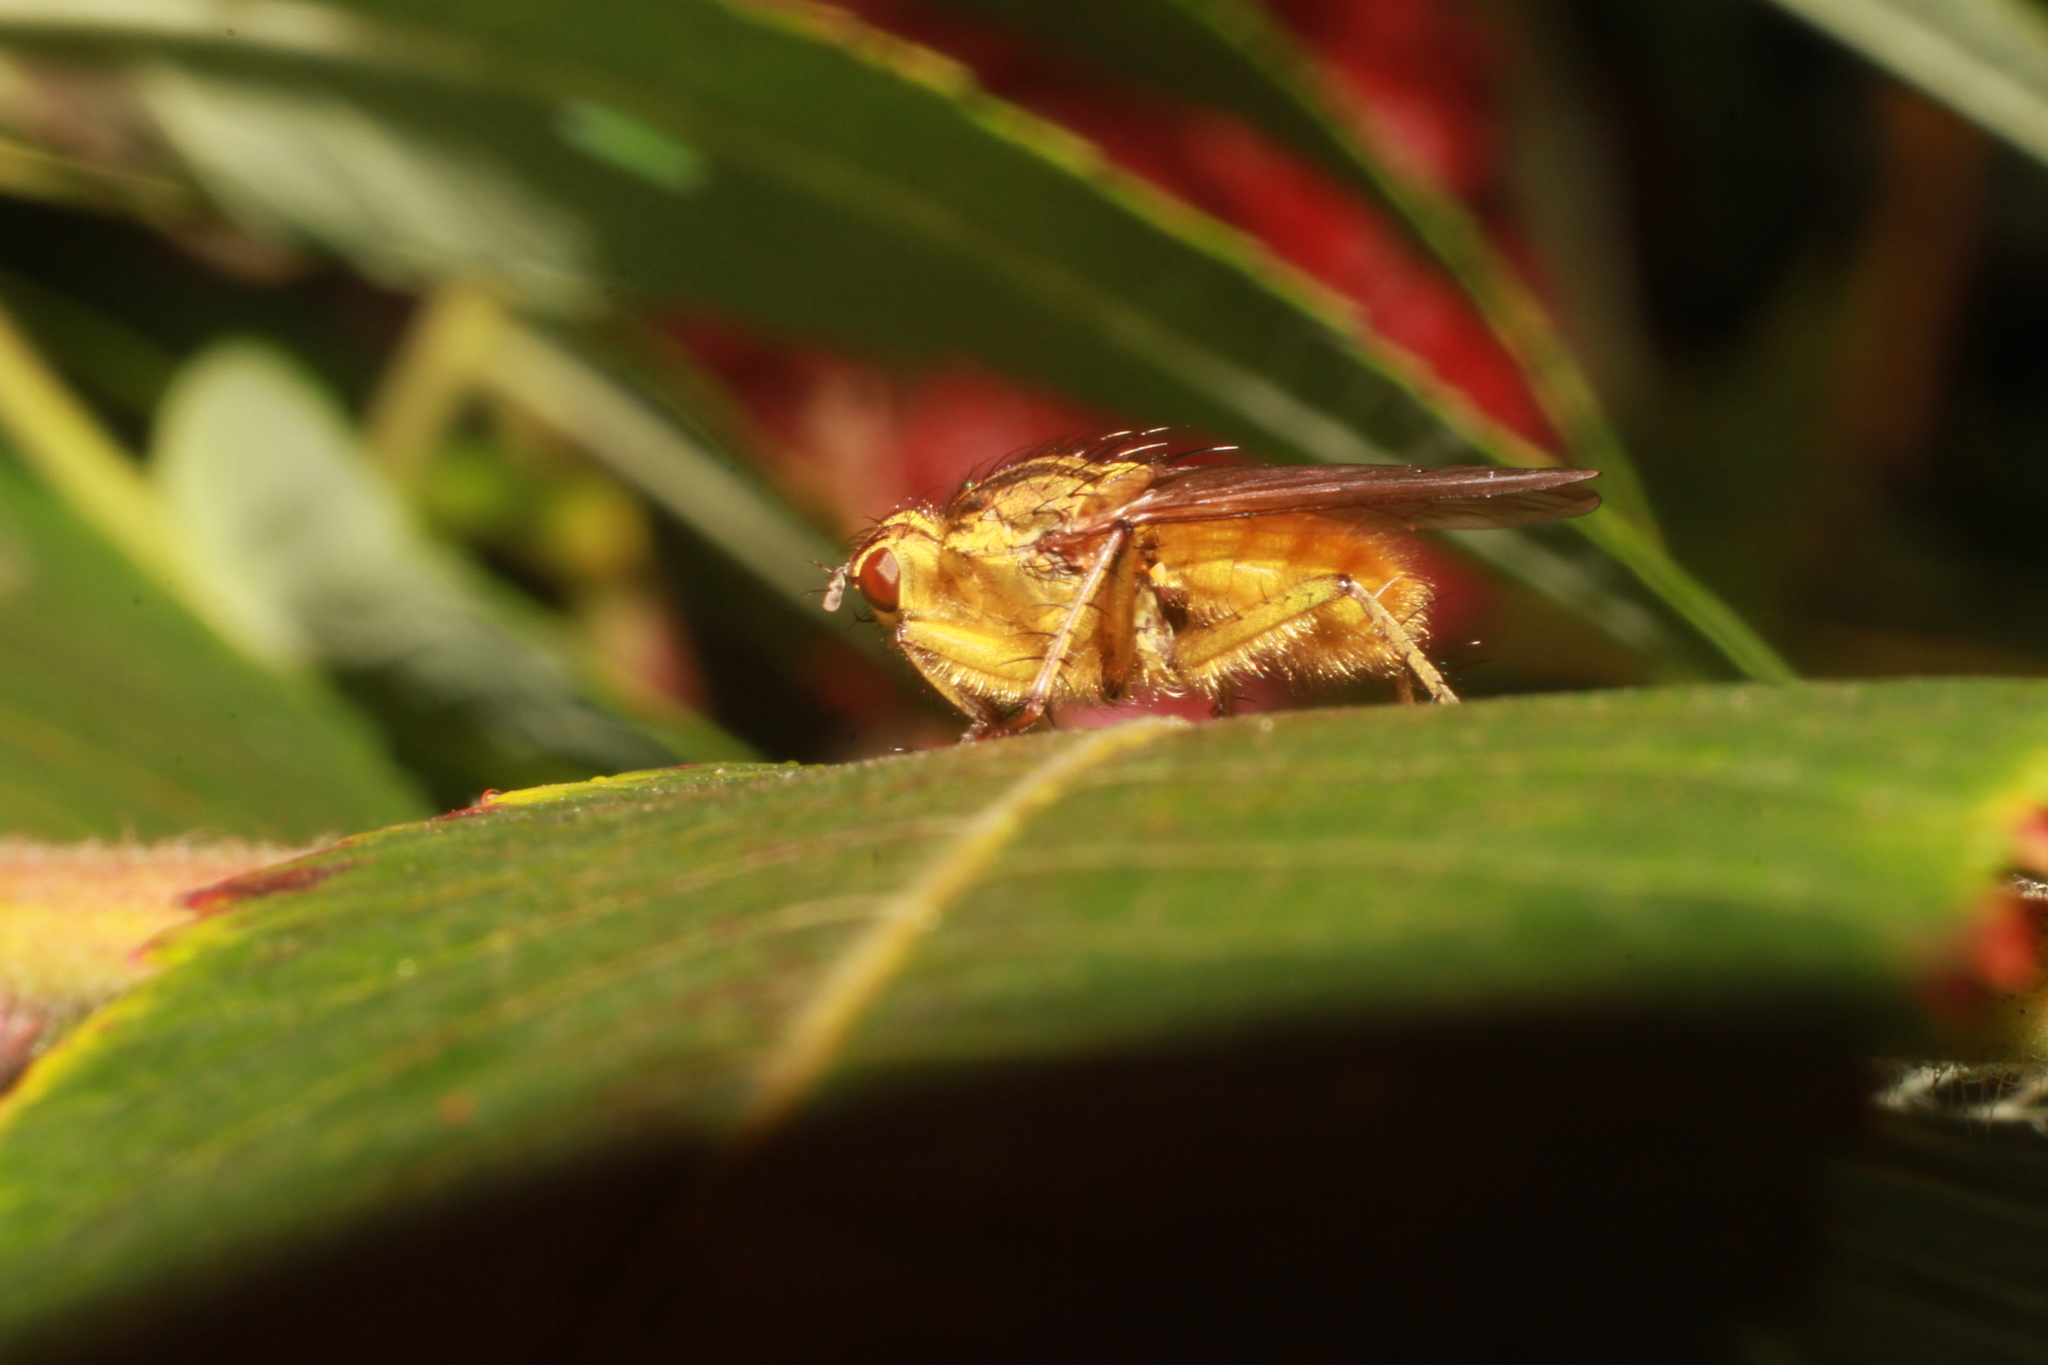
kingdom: Animalia
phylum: Arthropoda
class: Insecta
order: Diptera
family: Scathophagidae
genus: Scathophaga
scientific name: Scathophaga stercoraria
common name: Yellow dung fly
